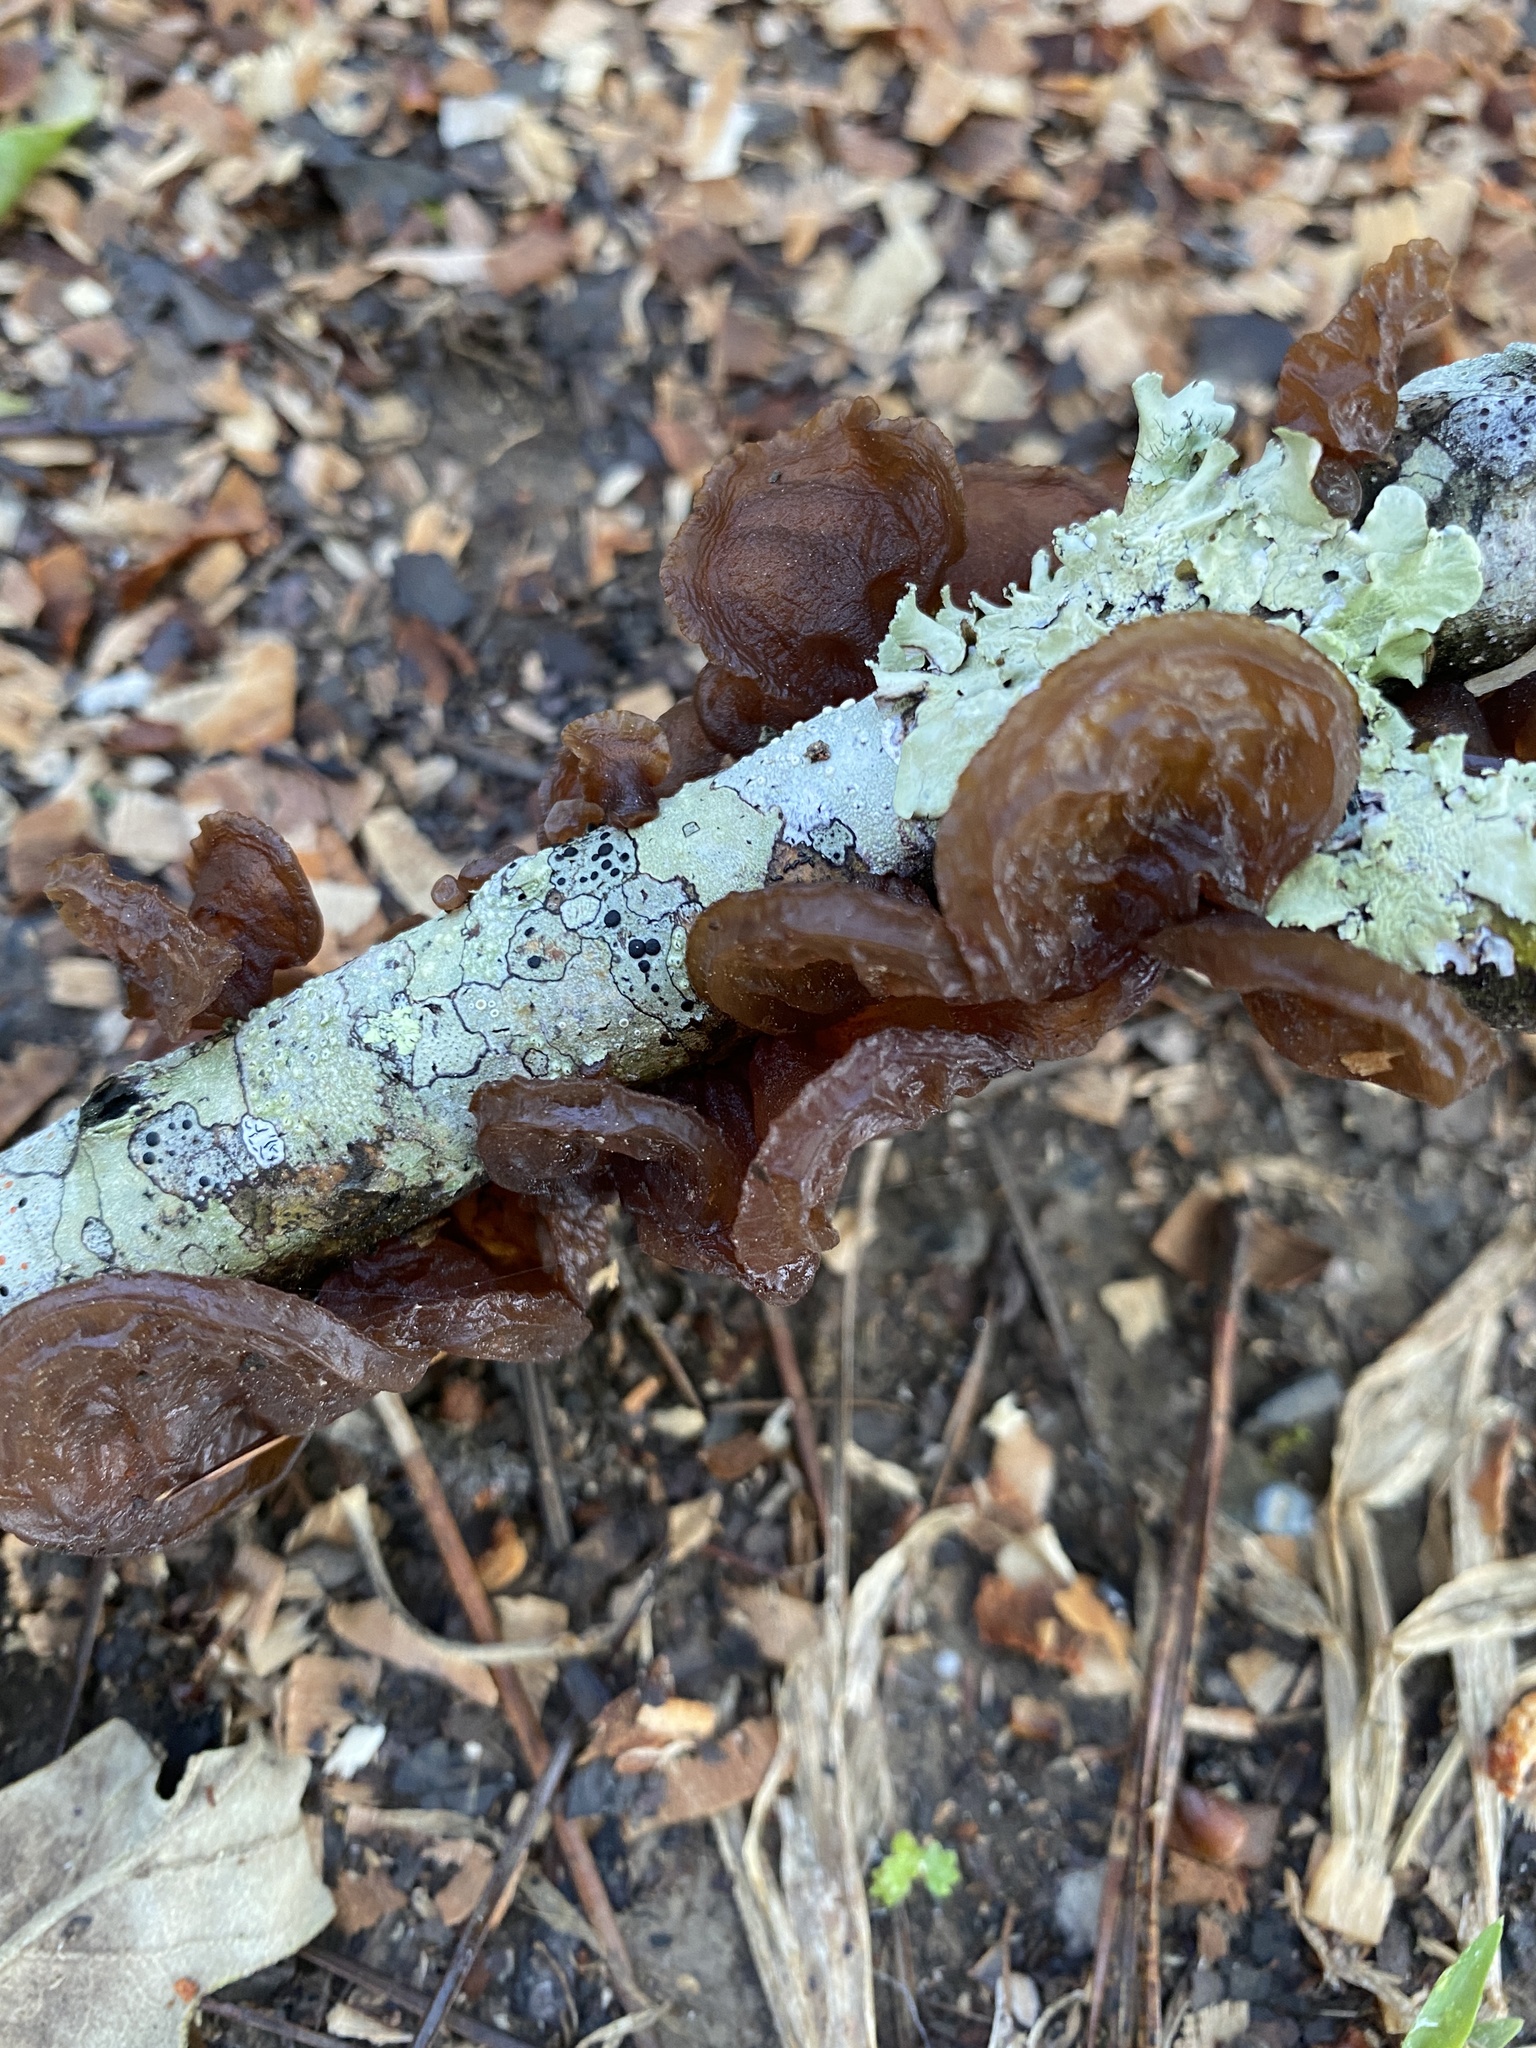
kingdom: Fungi
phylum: Basidiomycota
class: Agaricomycetes
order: Auriculariales
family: Auriculariaceae
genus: Exidia
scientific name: Exidia
